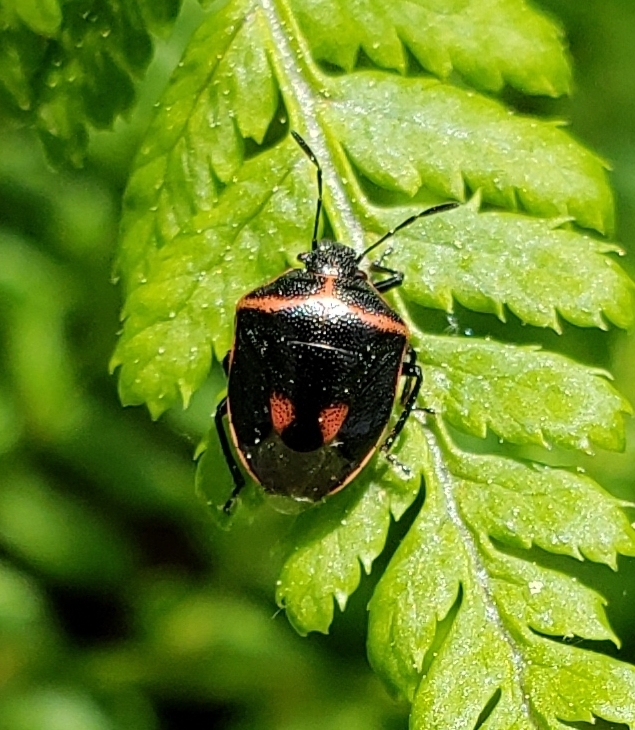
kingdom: Animalia
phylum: Arthropoda
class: Insecta
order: Hemiptera
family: Pentatomidae
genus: Cosmopepla
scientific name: Cosmopepla lintneriana
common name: Twice-stabbed stink bug
